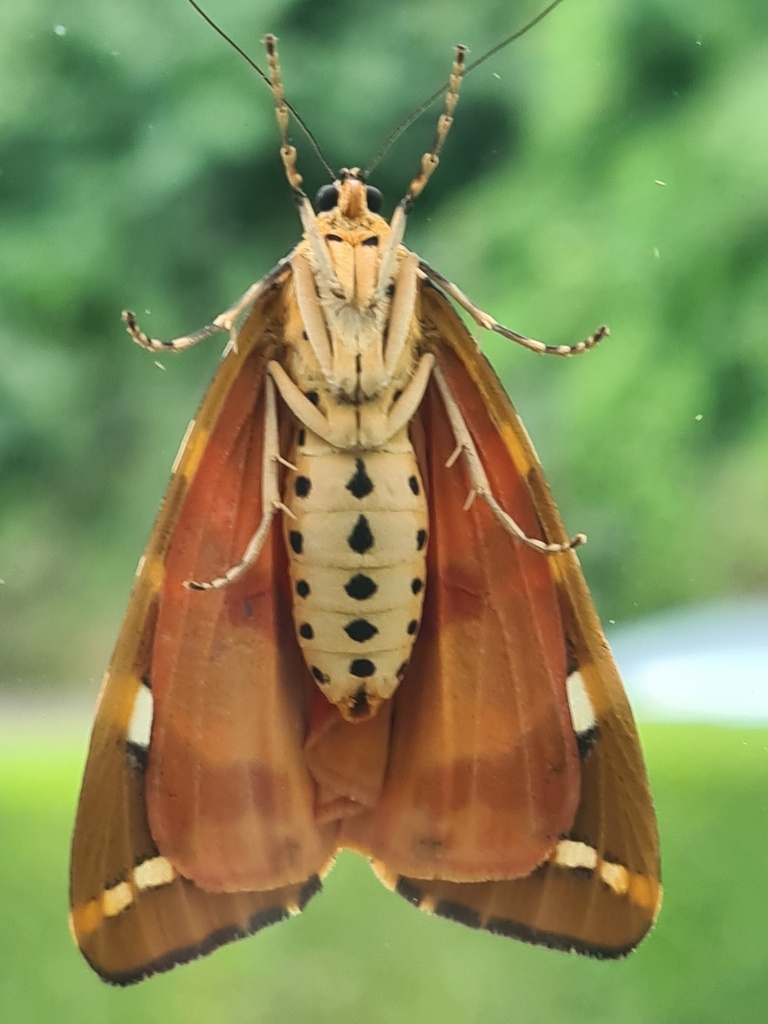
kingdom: Animalia
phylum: Arthropoda
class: Insecta
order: Lepidoptera
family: Erebidae
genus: Euplagia
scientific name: Euplagia quadripunctaria
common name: Jersey tiger
